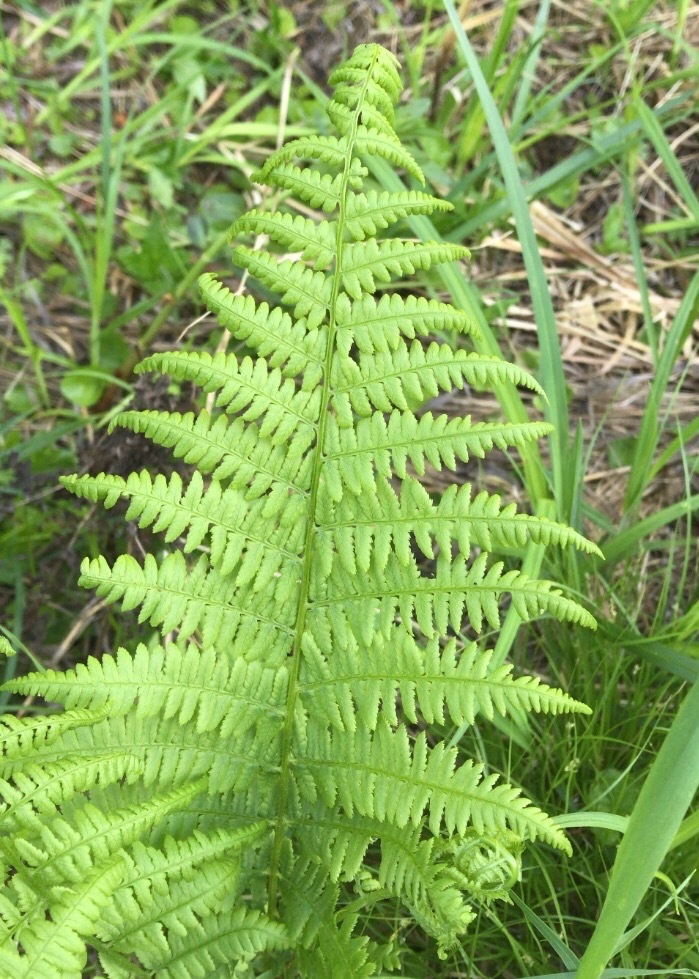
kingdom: Plantae
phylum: Tracheophyta
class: Polypodiopsida
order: Polypodiales
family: Athyriaceae
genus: Athyrium
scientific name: Athyrium angustum
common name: Northern lady fern
